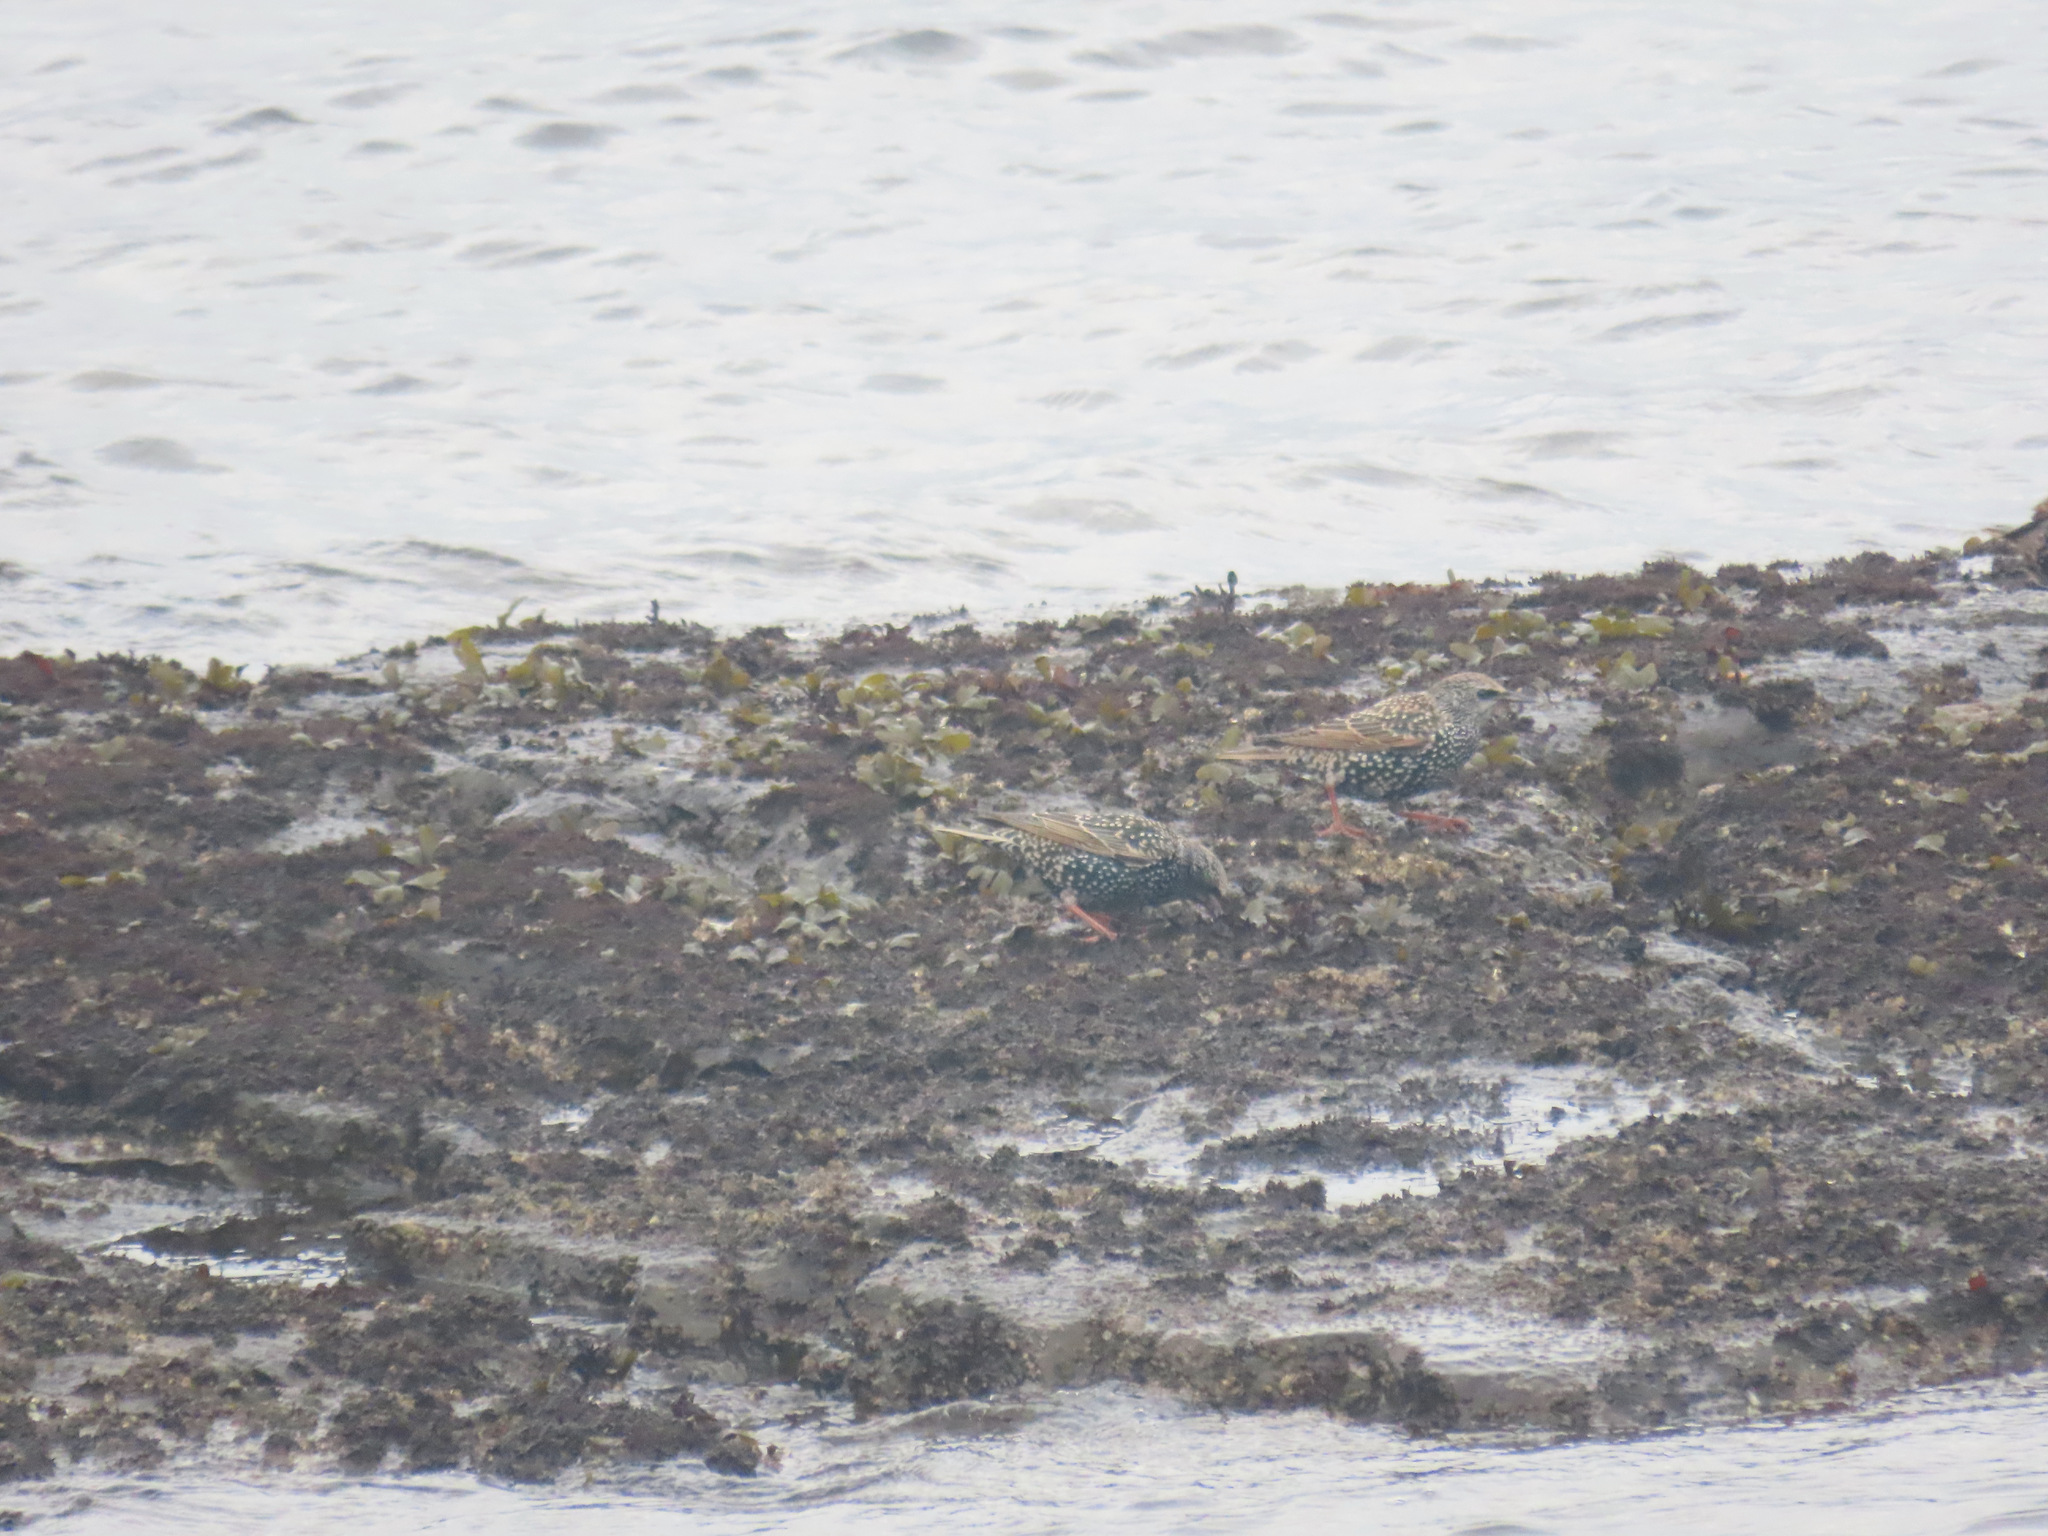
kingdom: Animalia
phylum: Chordata
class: Aves
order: Passeriformes
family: Sturnidae
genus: Sturnus
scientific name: Sturnus vulgaris
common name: Common starling
